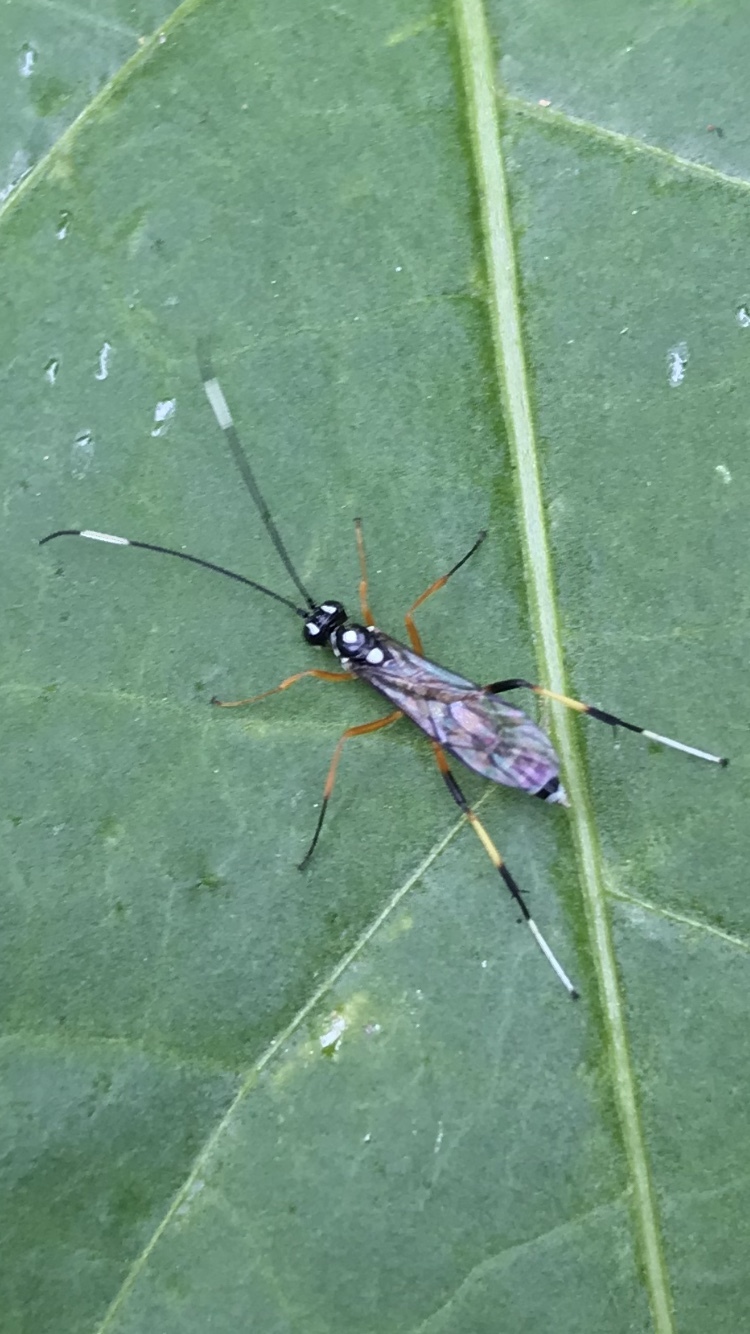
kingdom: Animalia
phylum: Arthropoda
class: Insecta
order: Hymenoptera
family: Ichneumonidae
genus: Xanthocryptus
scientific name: Xanthocryptus novozealandicus
